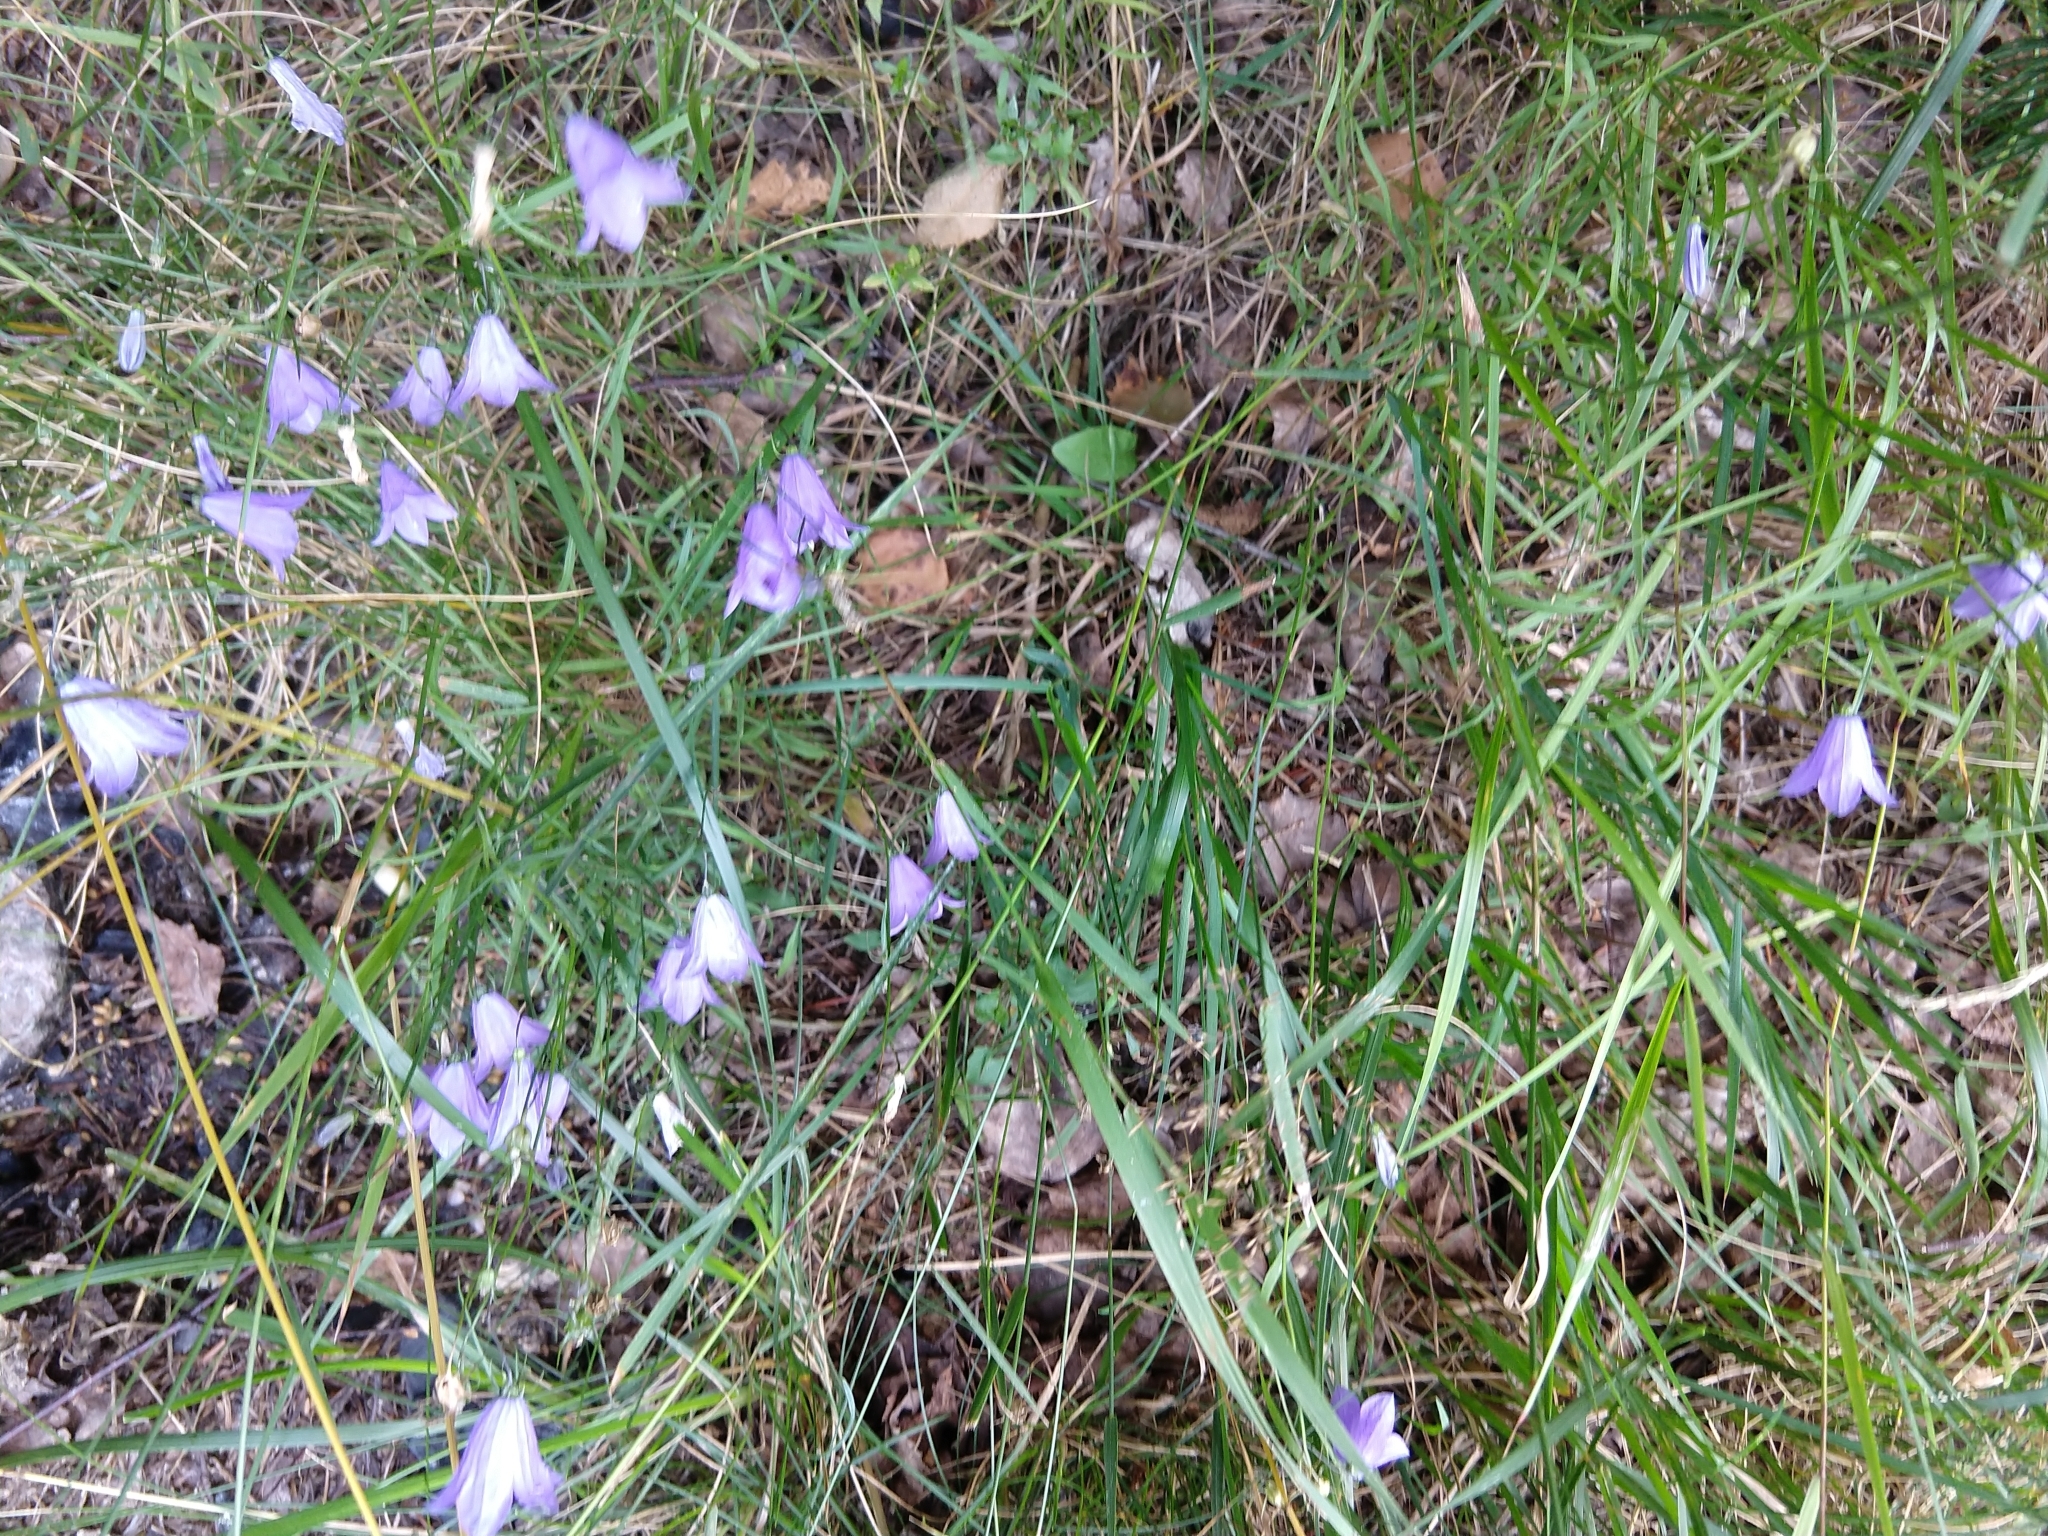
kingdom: Plantae
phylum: Tracheophyta
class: Magnoliopsida
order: Asterales
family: Campanulaceae
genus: Campanula
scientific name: Campanula rotundifolia
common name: Harebell
